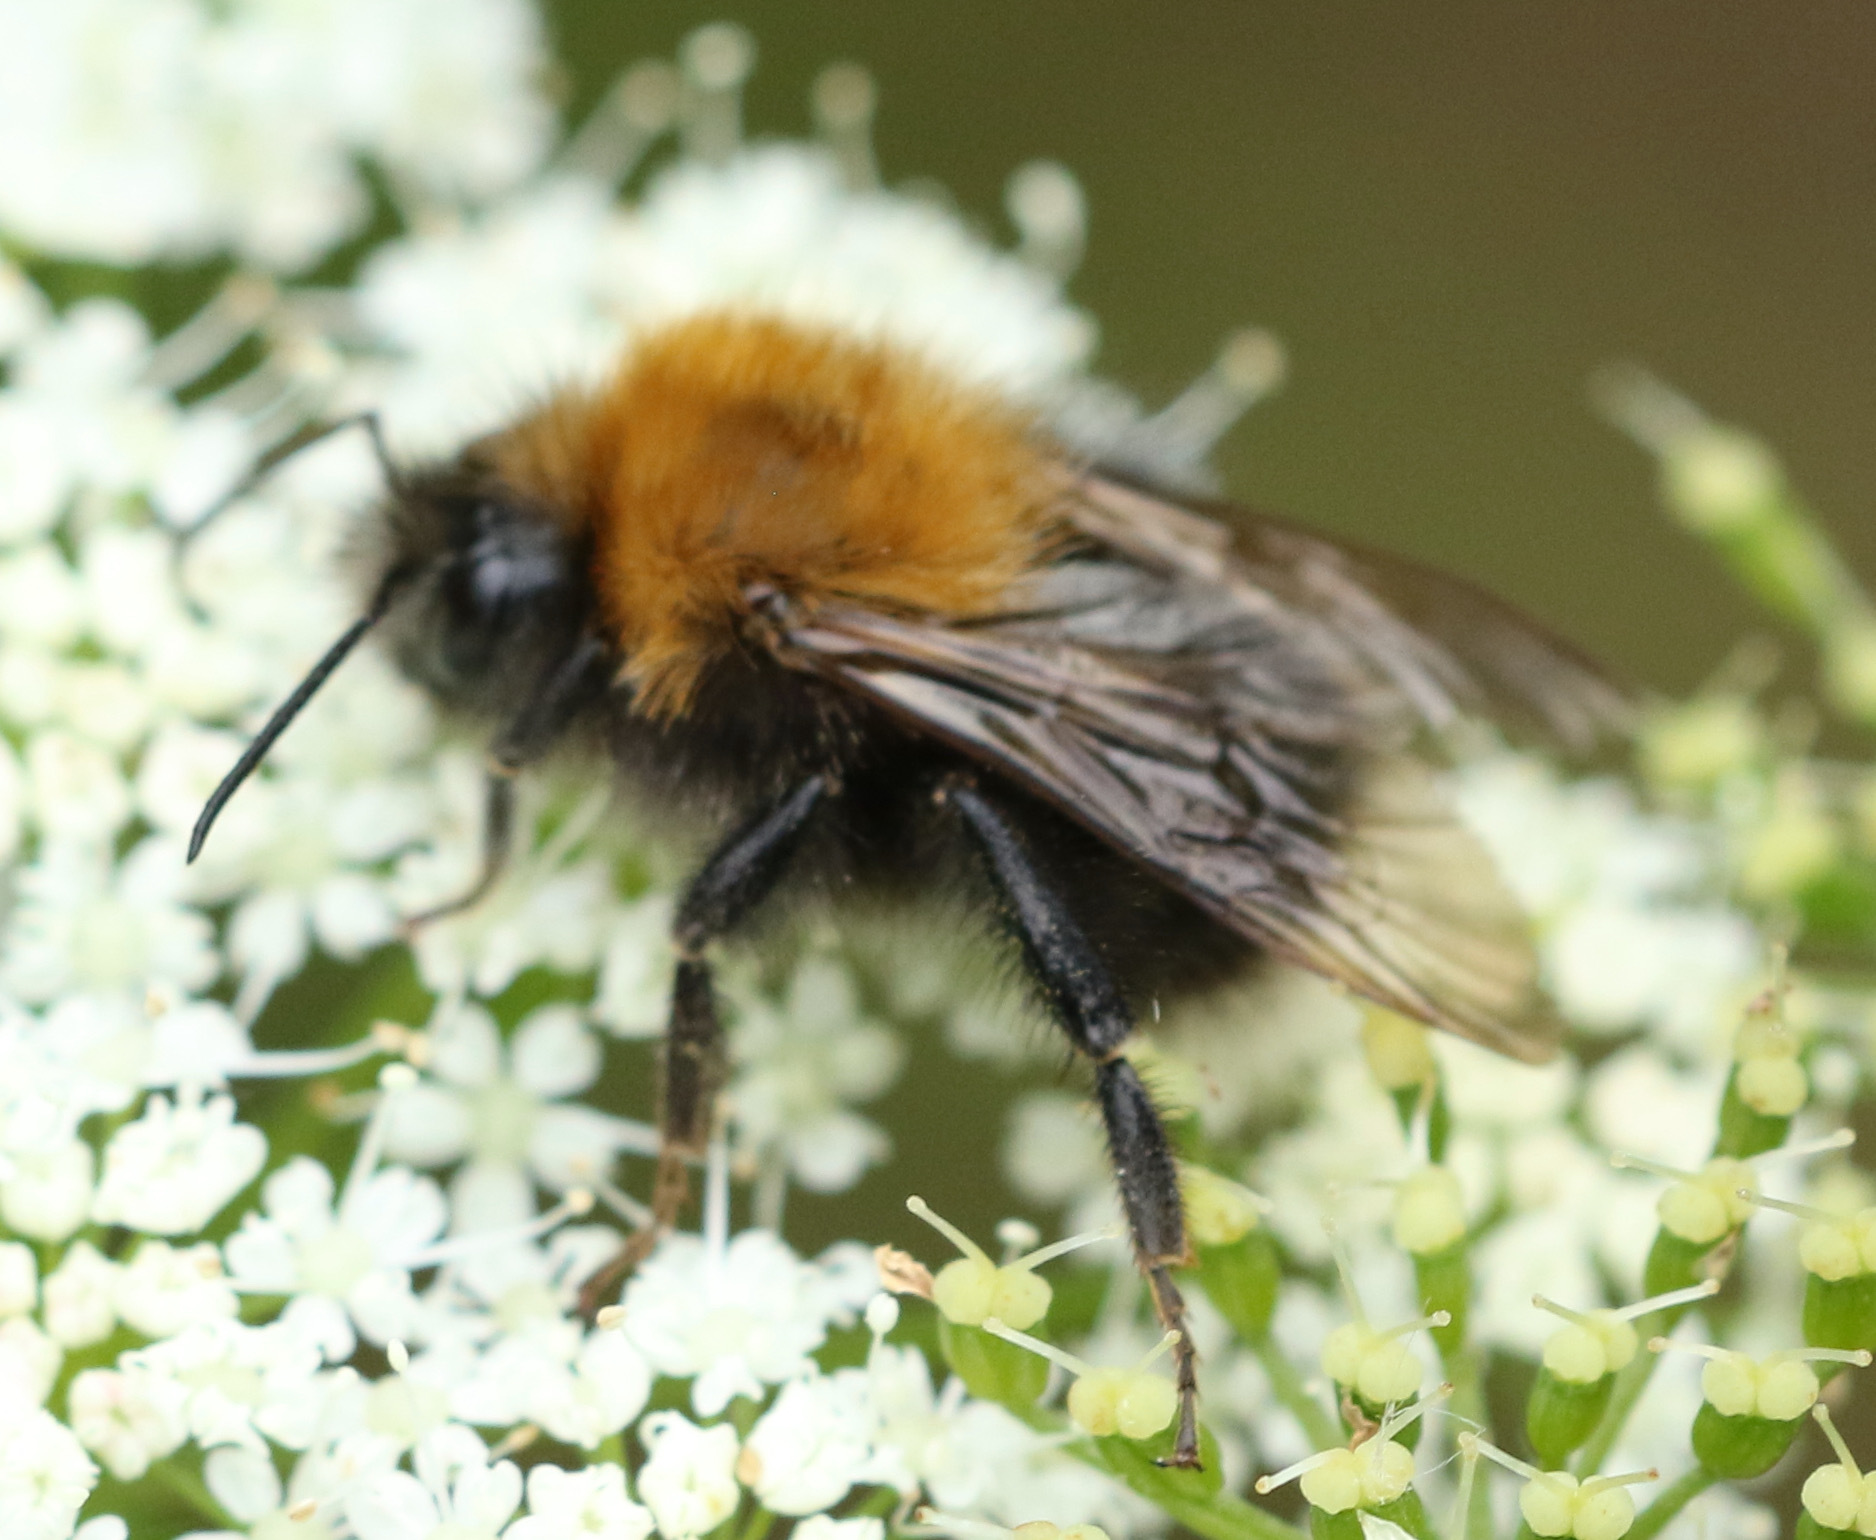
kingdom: Animalia
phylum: Arthropoda
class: Insecta
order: Hymenoptera
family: Apidae
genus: Bombus
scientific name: Bombus hypnorum
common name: New garden bumblebee
